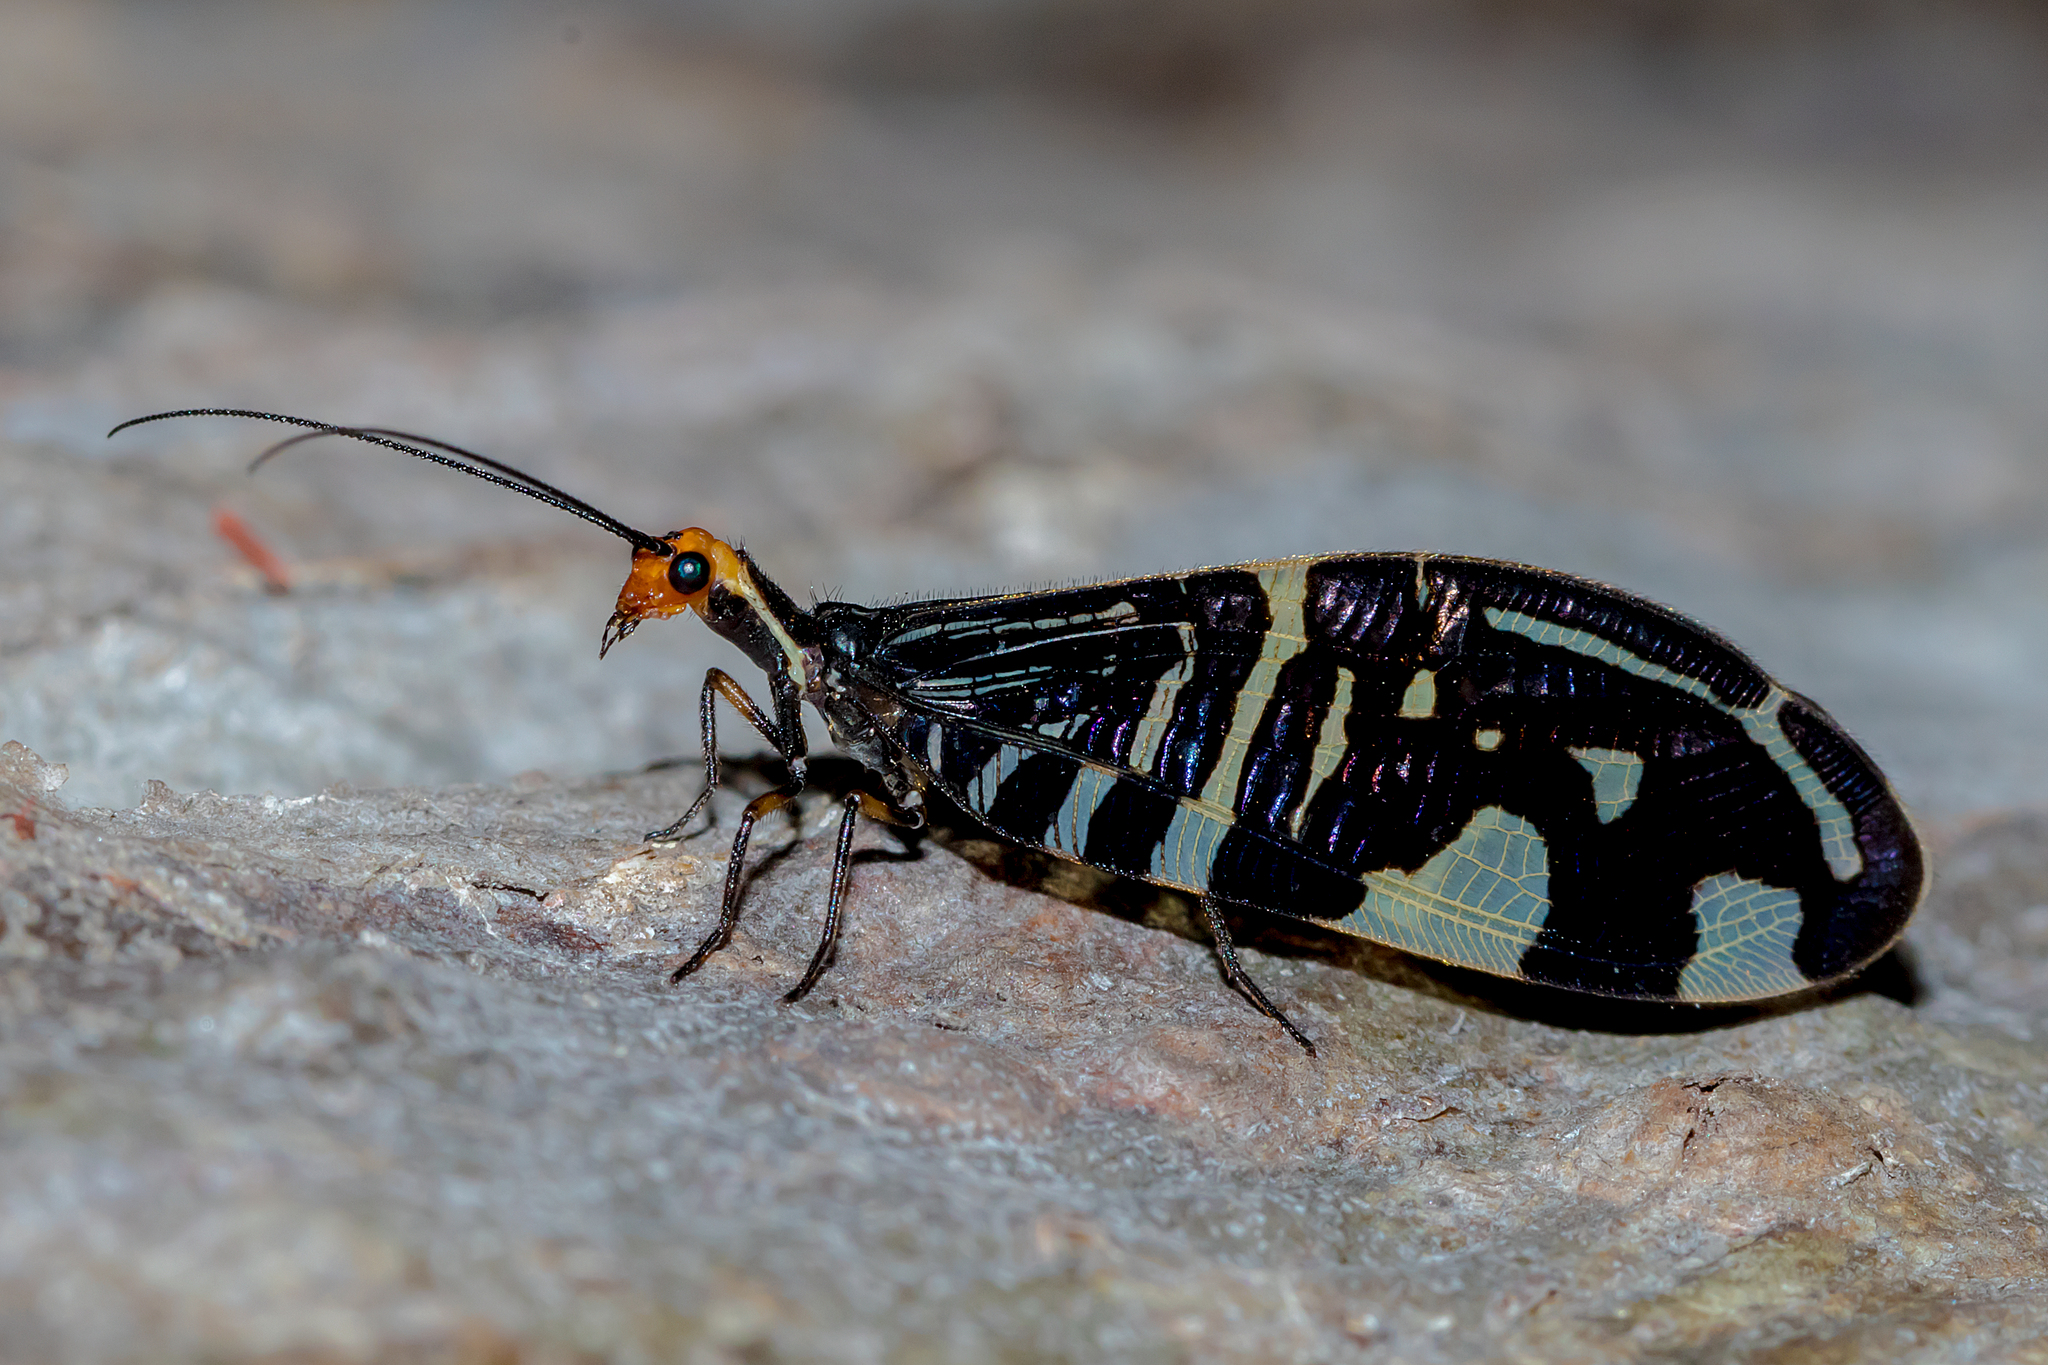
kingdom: Animalia
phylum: Arthropoda
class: Insecta
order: Neuroptera
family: Osmylidae
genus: Porismus
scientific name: Porismus strigatus
